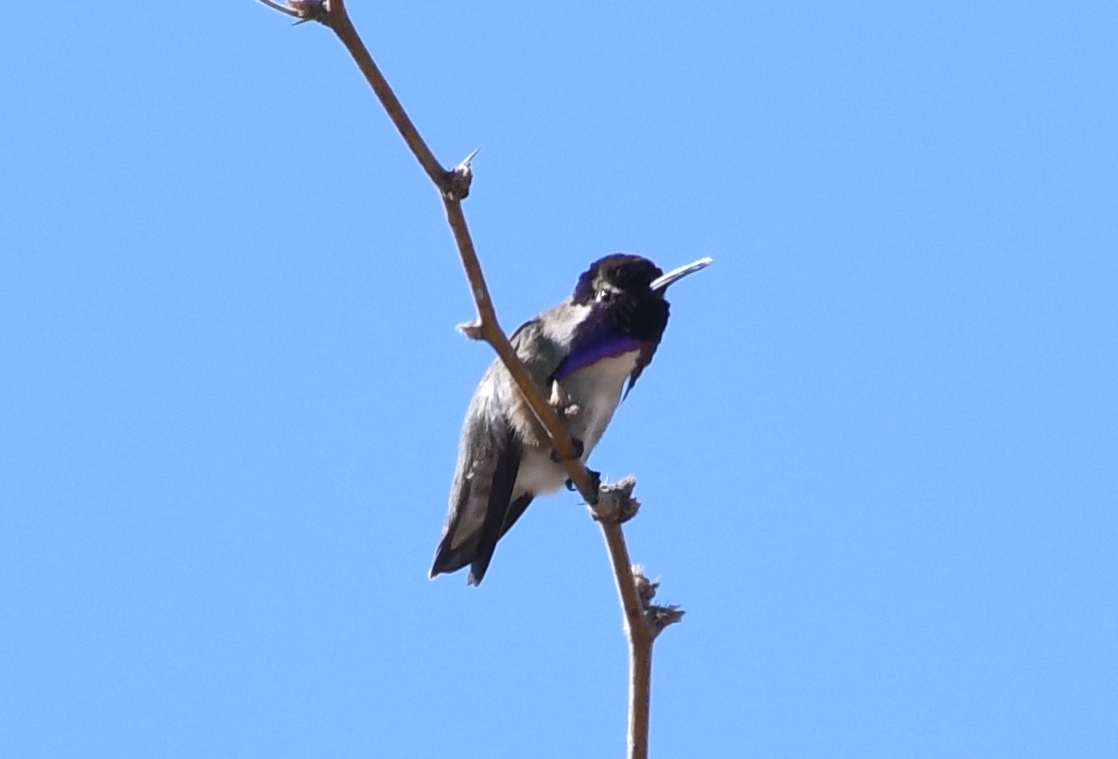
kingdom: Animalia
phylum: Chordata
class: Aves
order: Apodiformes
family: Trochilidae
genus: Calypte
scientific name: Calypte costae
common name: Costa's hummingbird
